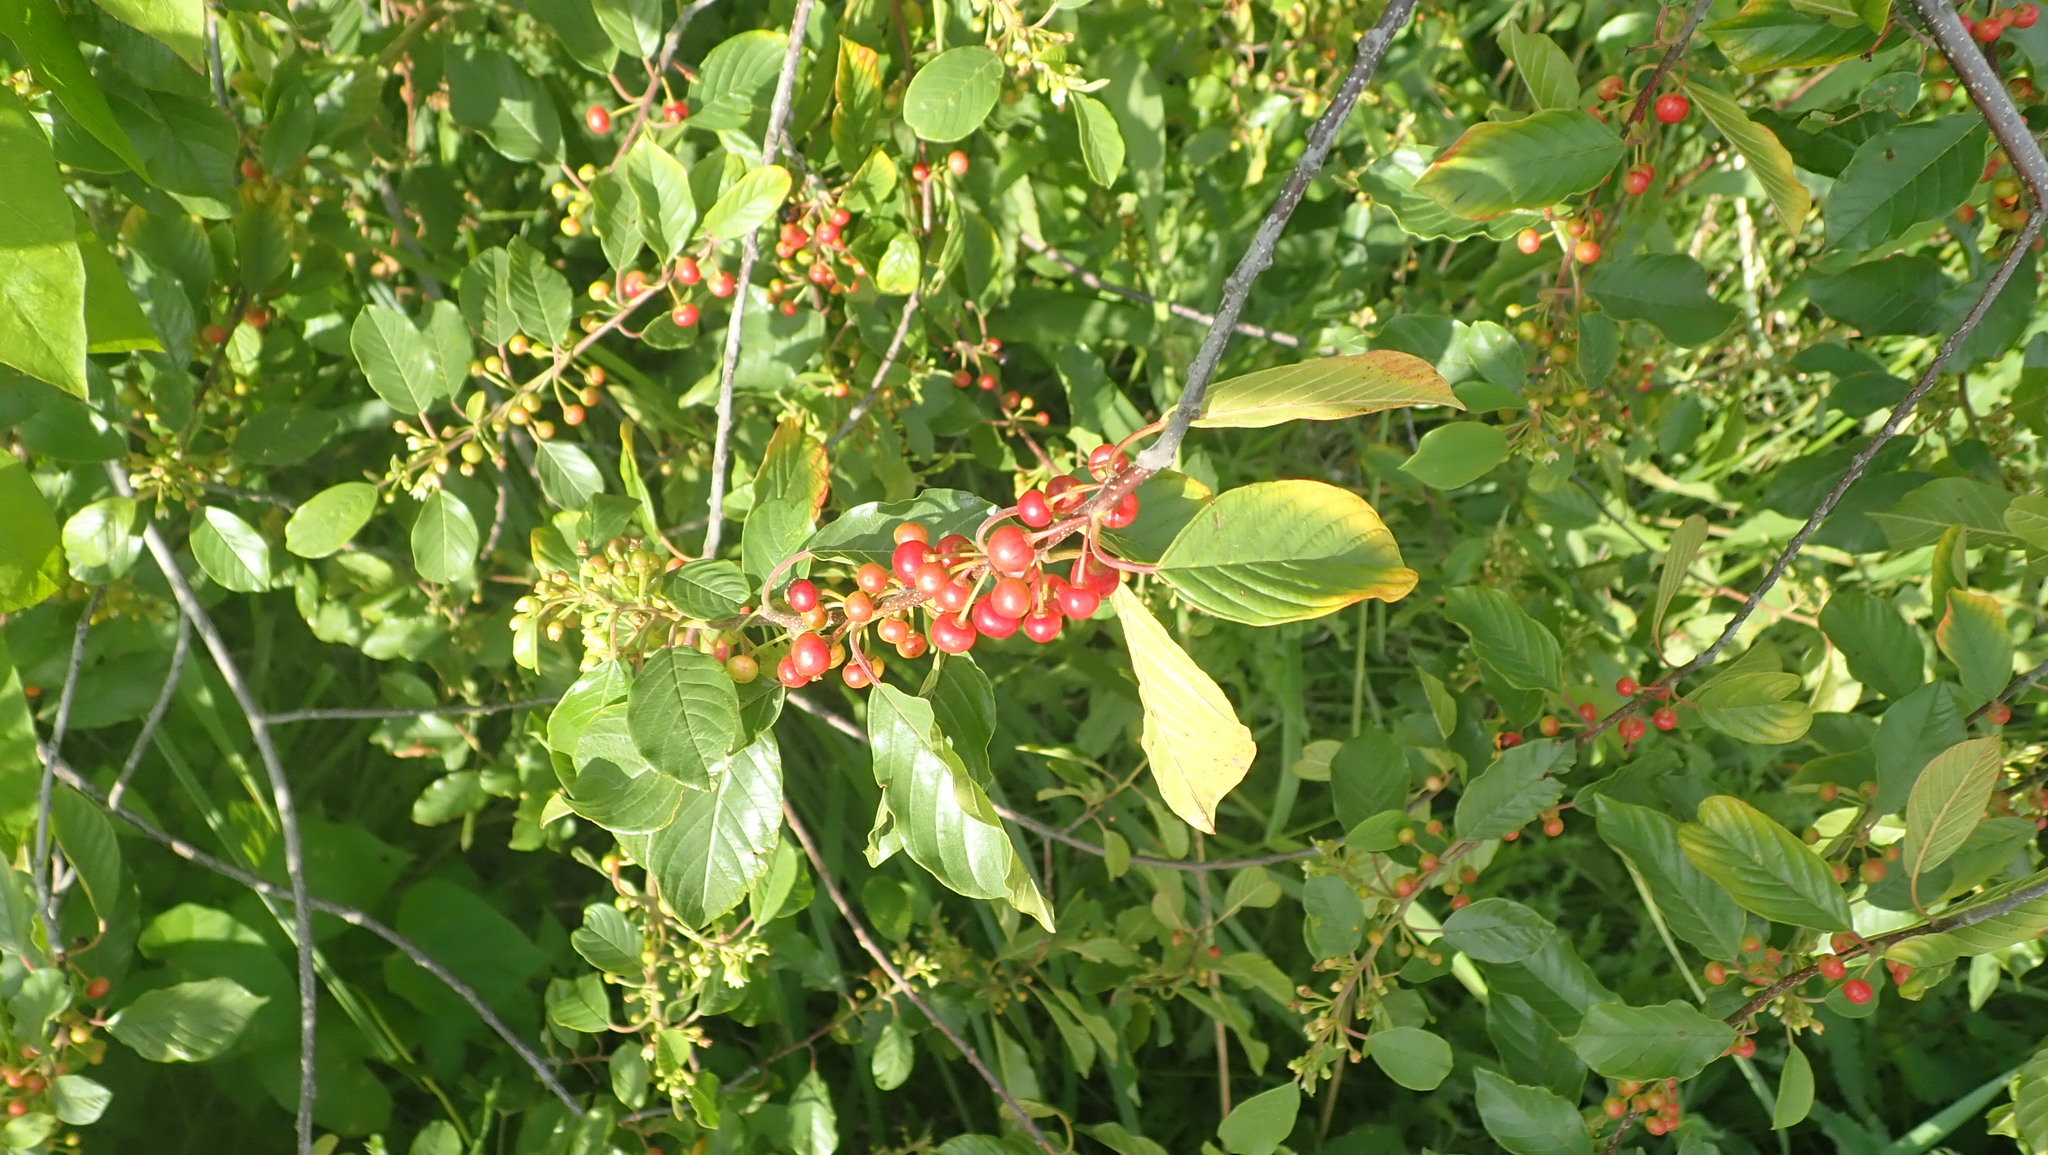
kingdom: Plantae
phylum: Tracheophyta
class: Magnoliopsida
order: Rosales
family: Rhamnaceae
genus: Frangula
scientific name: Frangula alnus
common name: Alder buckthorn
